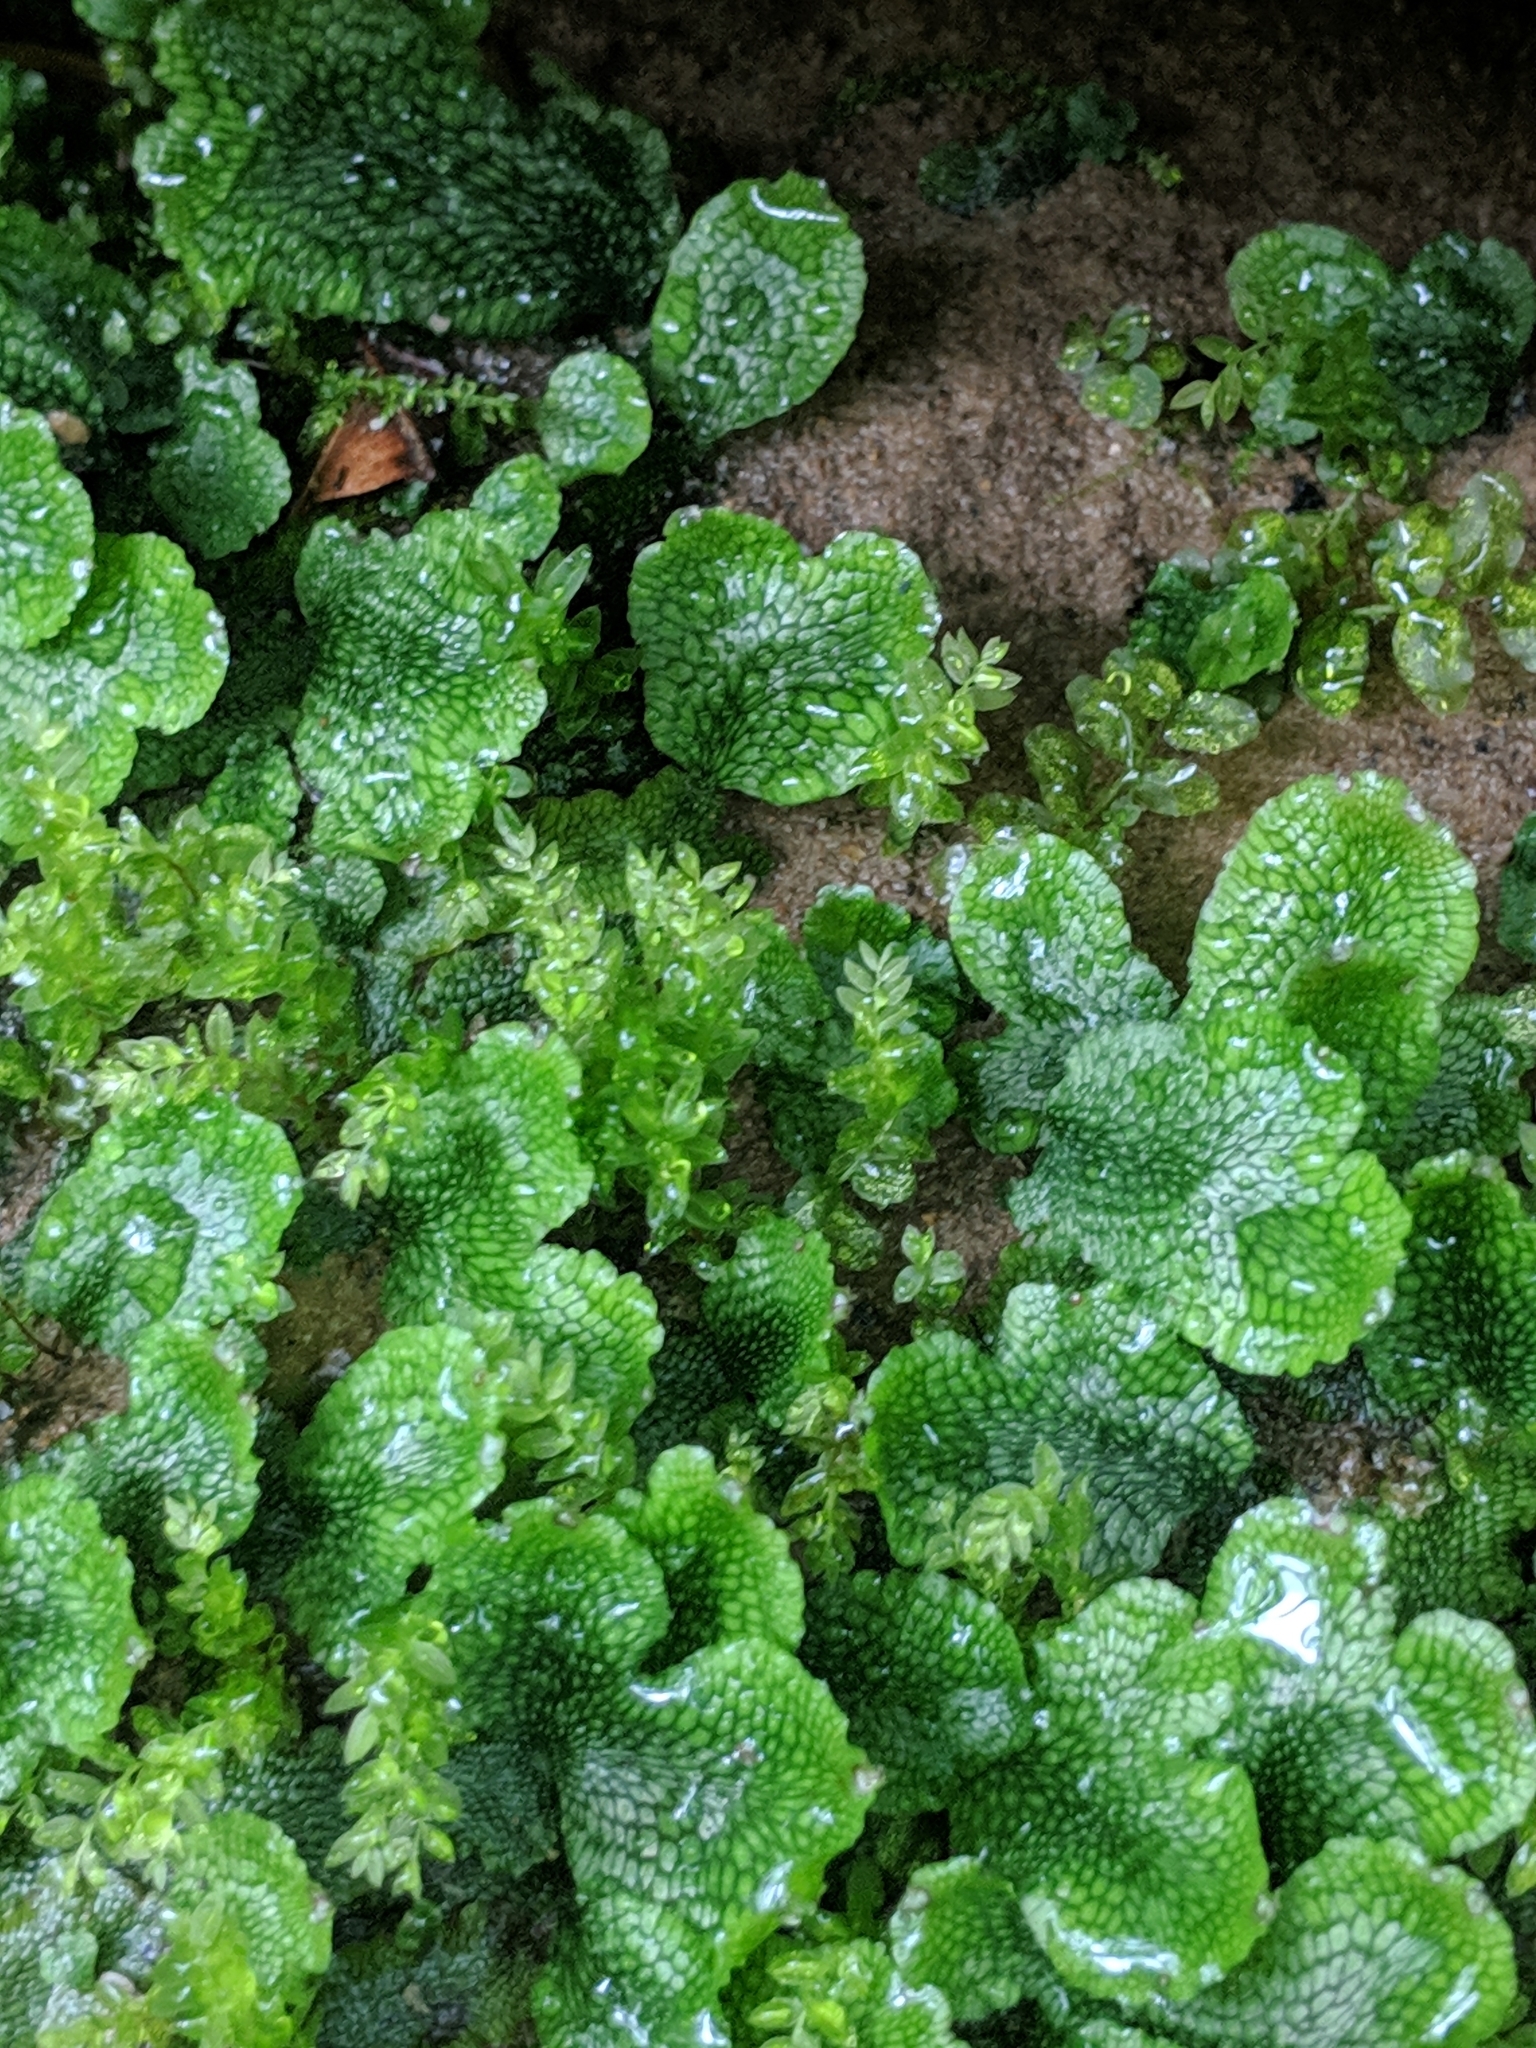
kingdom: Plantae
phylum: Marchantiophyta
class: Marchantiopsida
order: Marchantiales
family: Conocephalaceae
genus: Conocephalum
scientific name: Conocephalum salebrosum
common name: Cat-tongue liverwort
